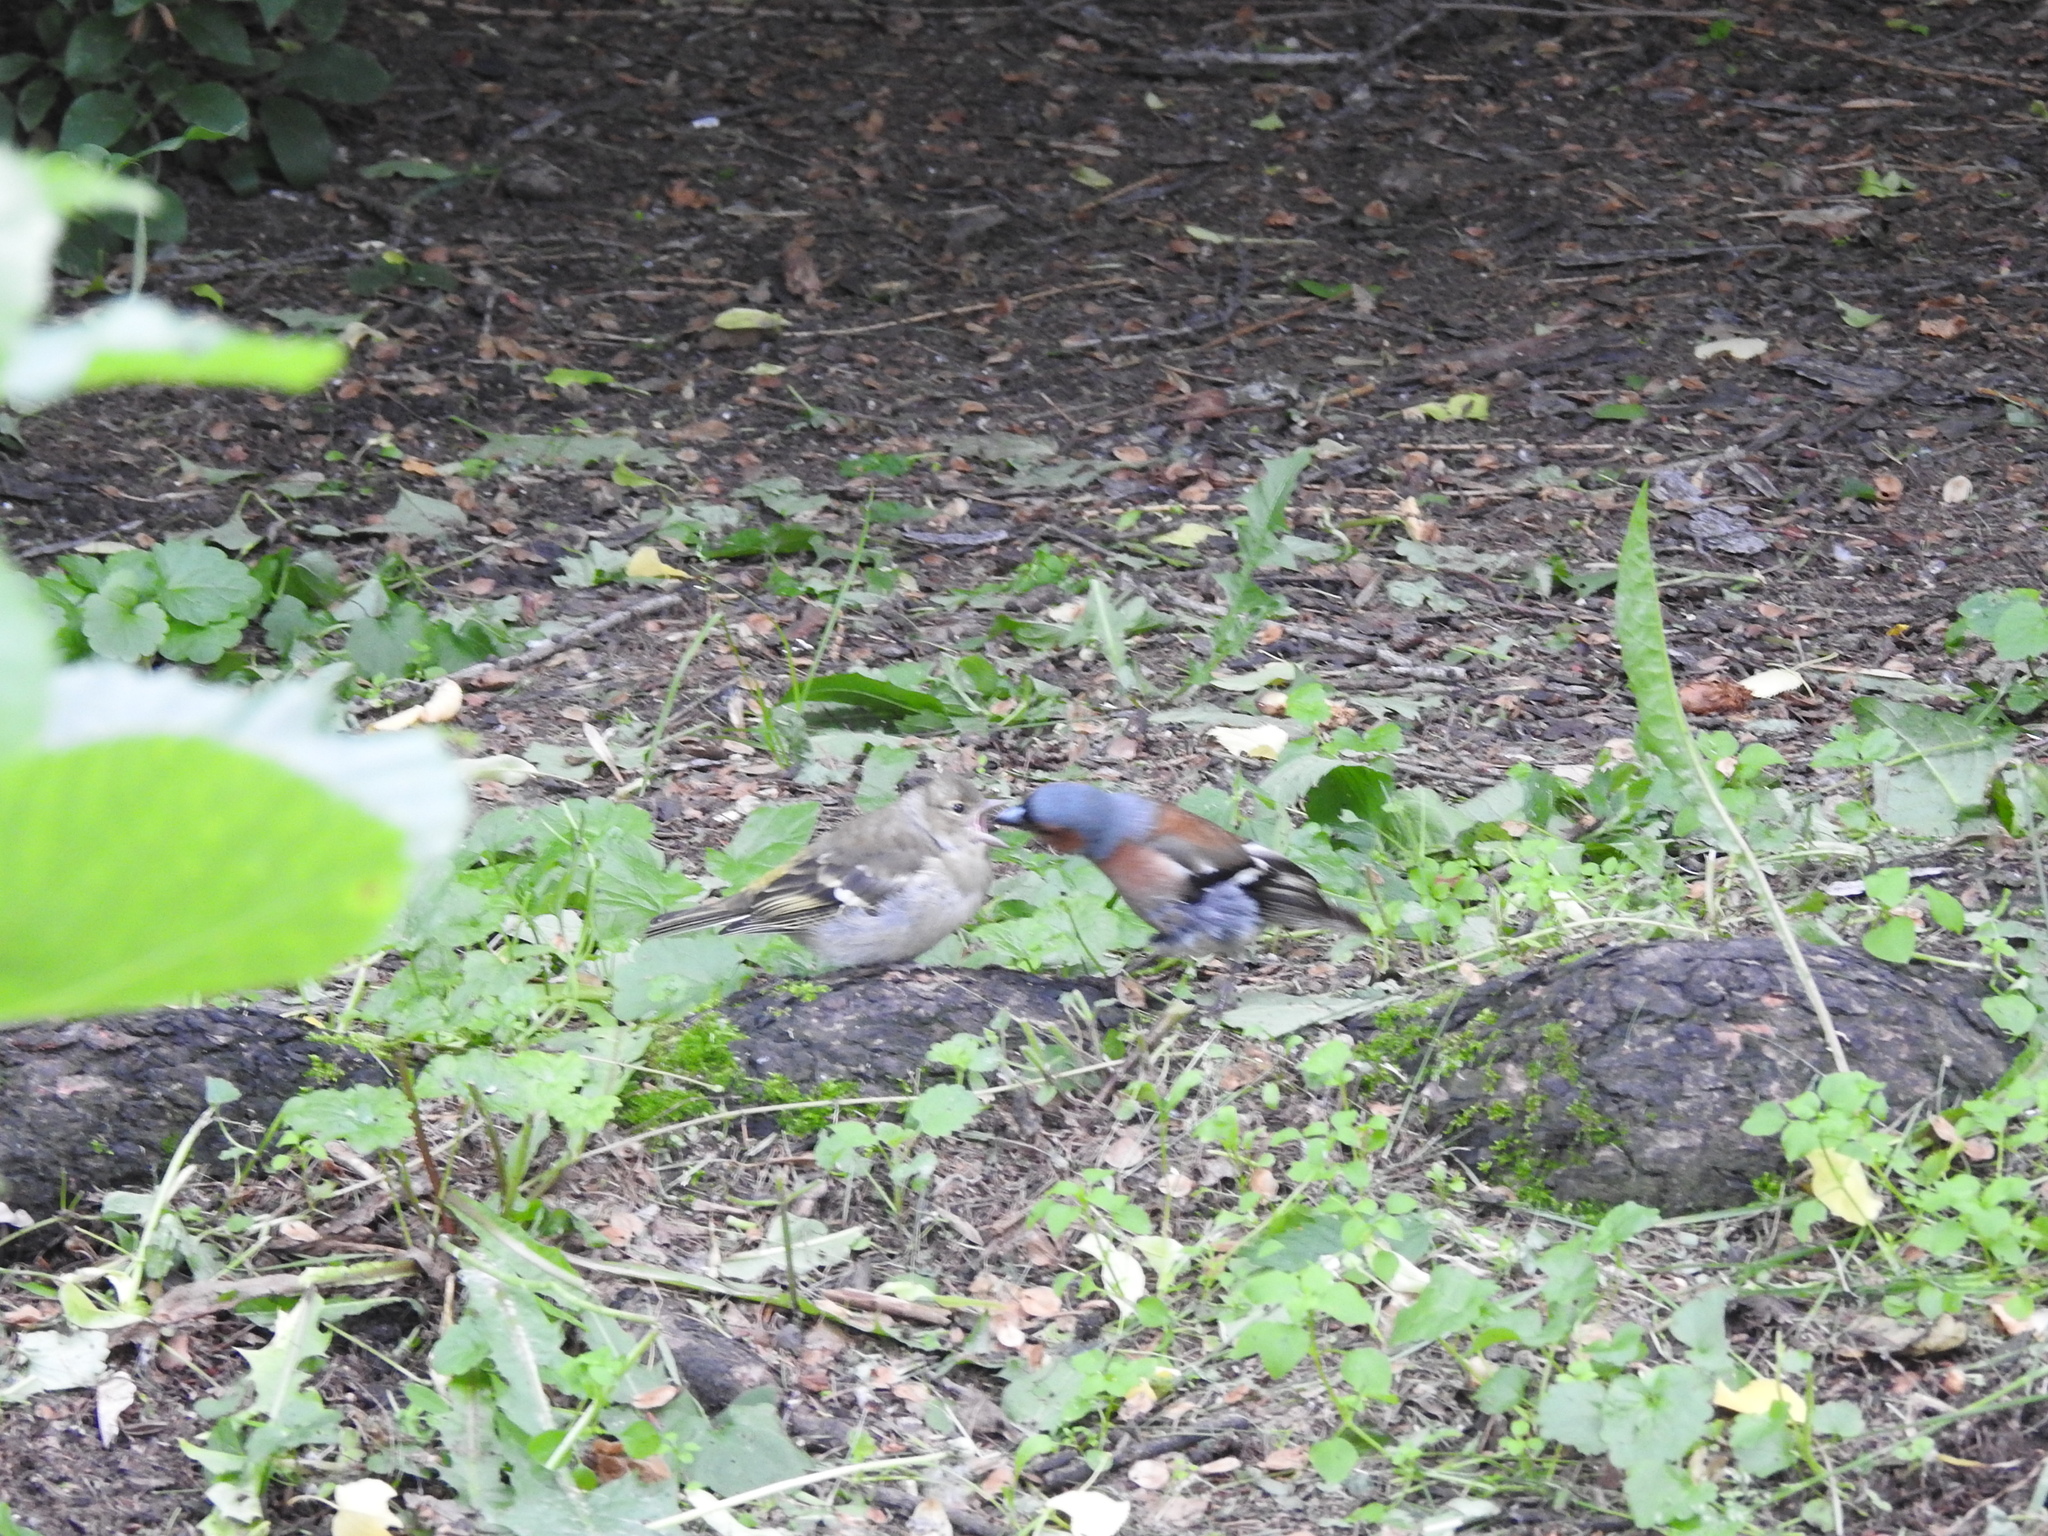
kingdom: Animalia
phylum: Chordata
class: Aves
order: Passeriformes
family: Fringillidae
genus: Fringilla
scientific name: Fringilla coelebs
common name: Common chaffinch
